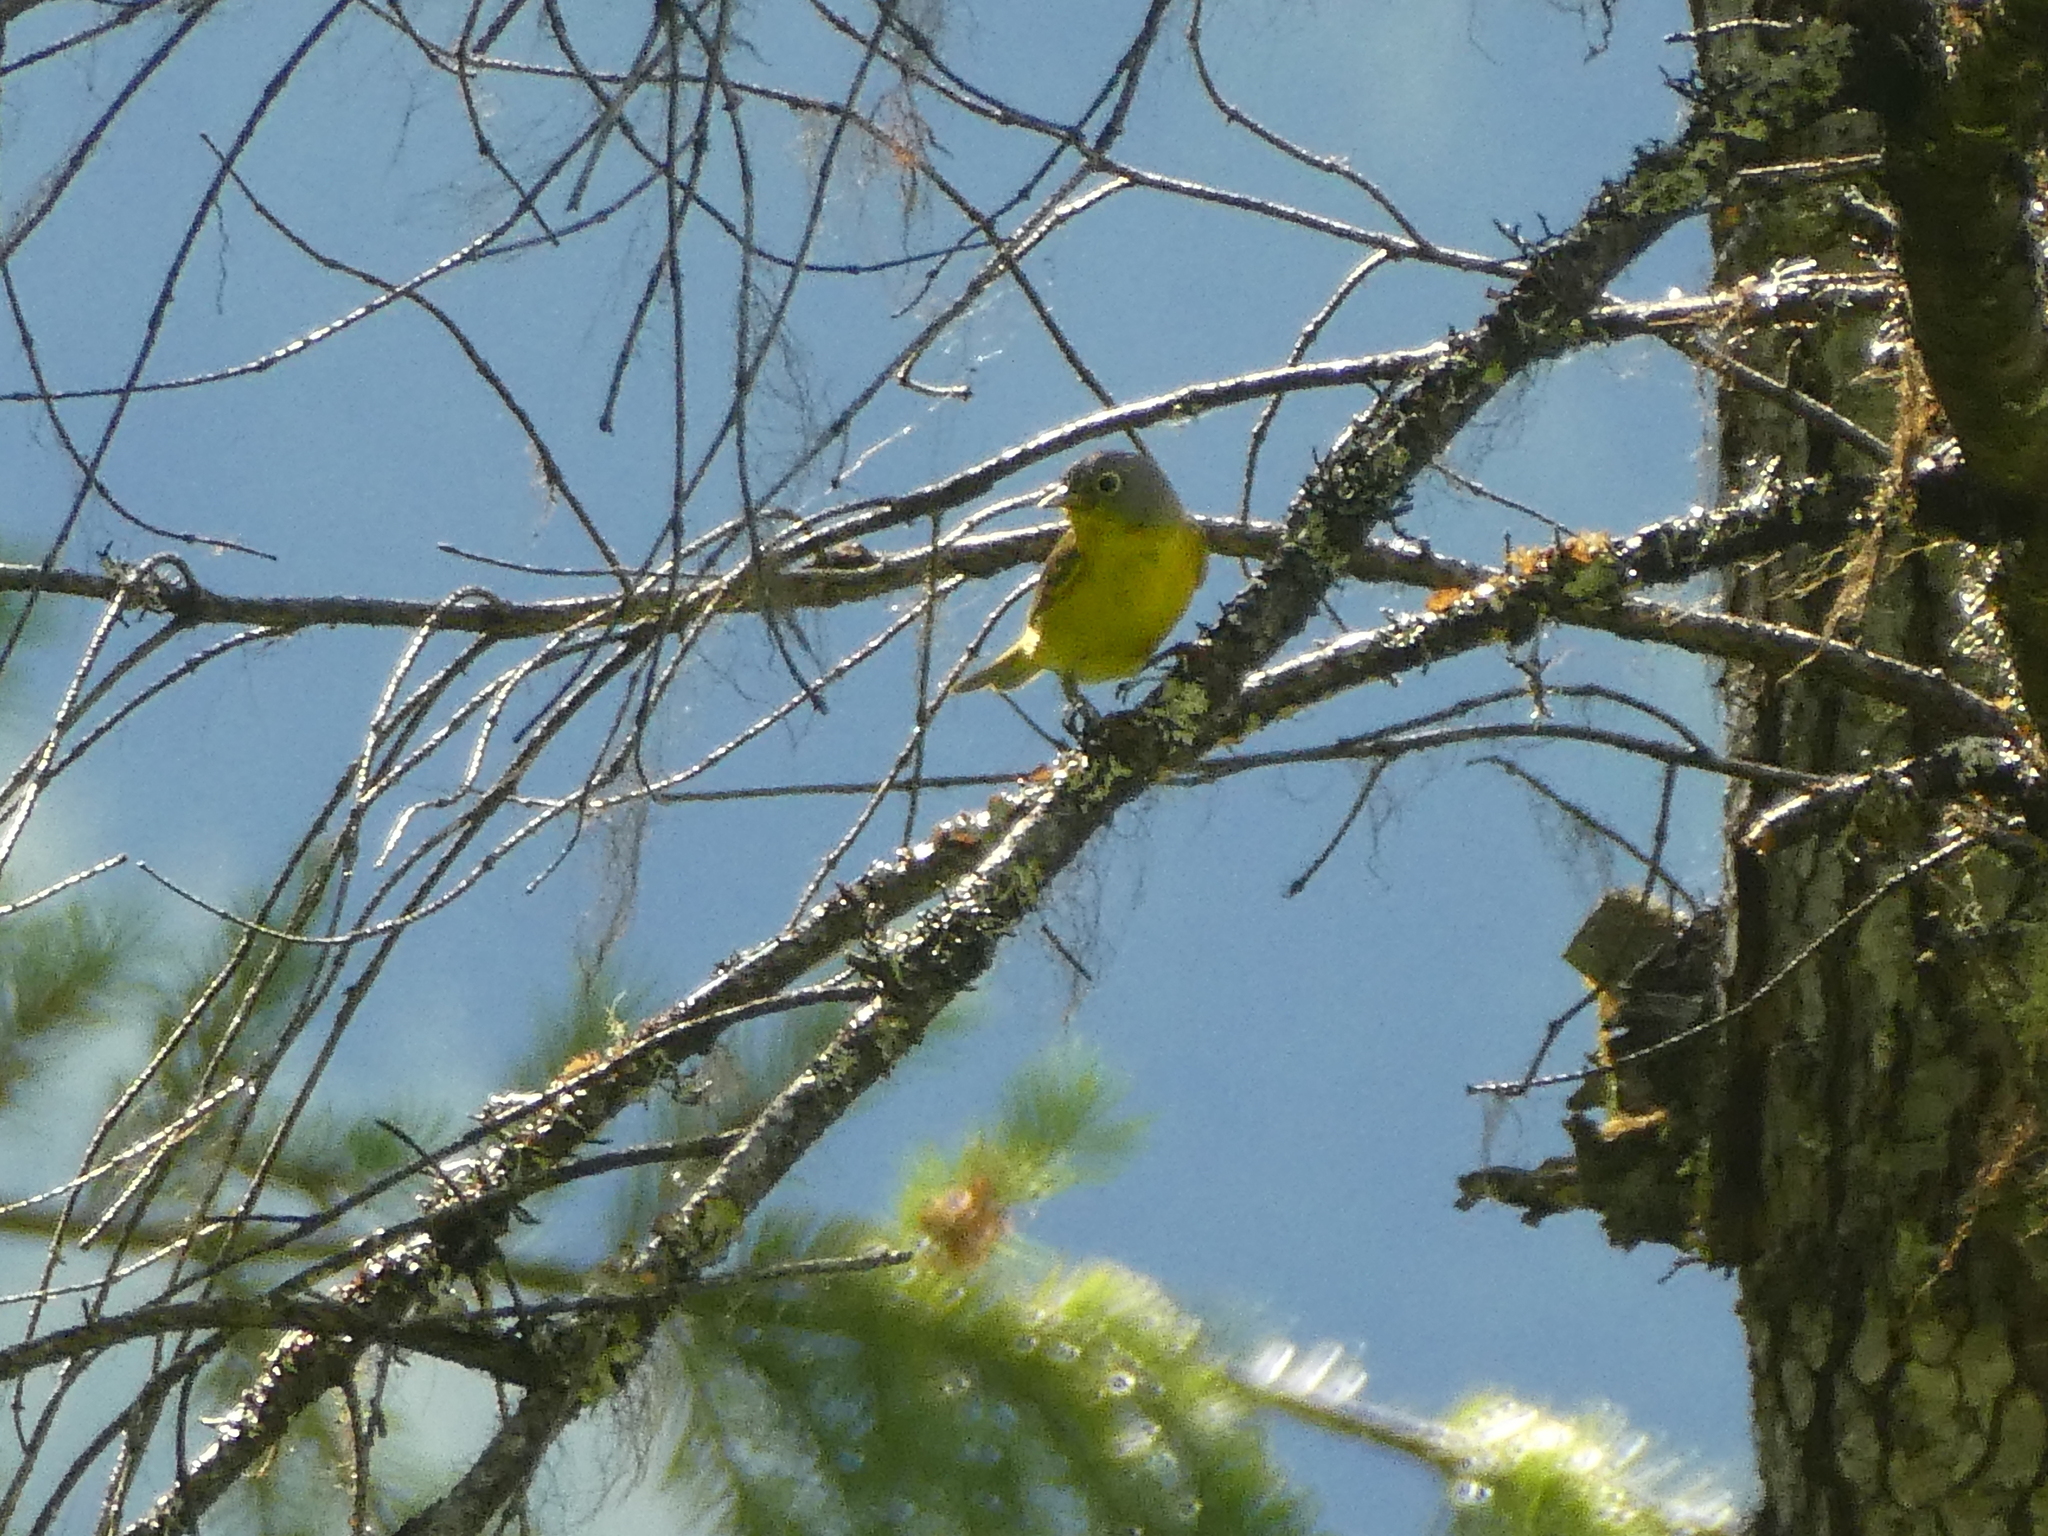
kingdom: Animalia
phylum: Chordata
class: Aves
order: Passeriformes
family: Parulidae
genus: Leiothlypis
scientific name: Leiothlypis ruficapilla
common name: Nashville warbler
